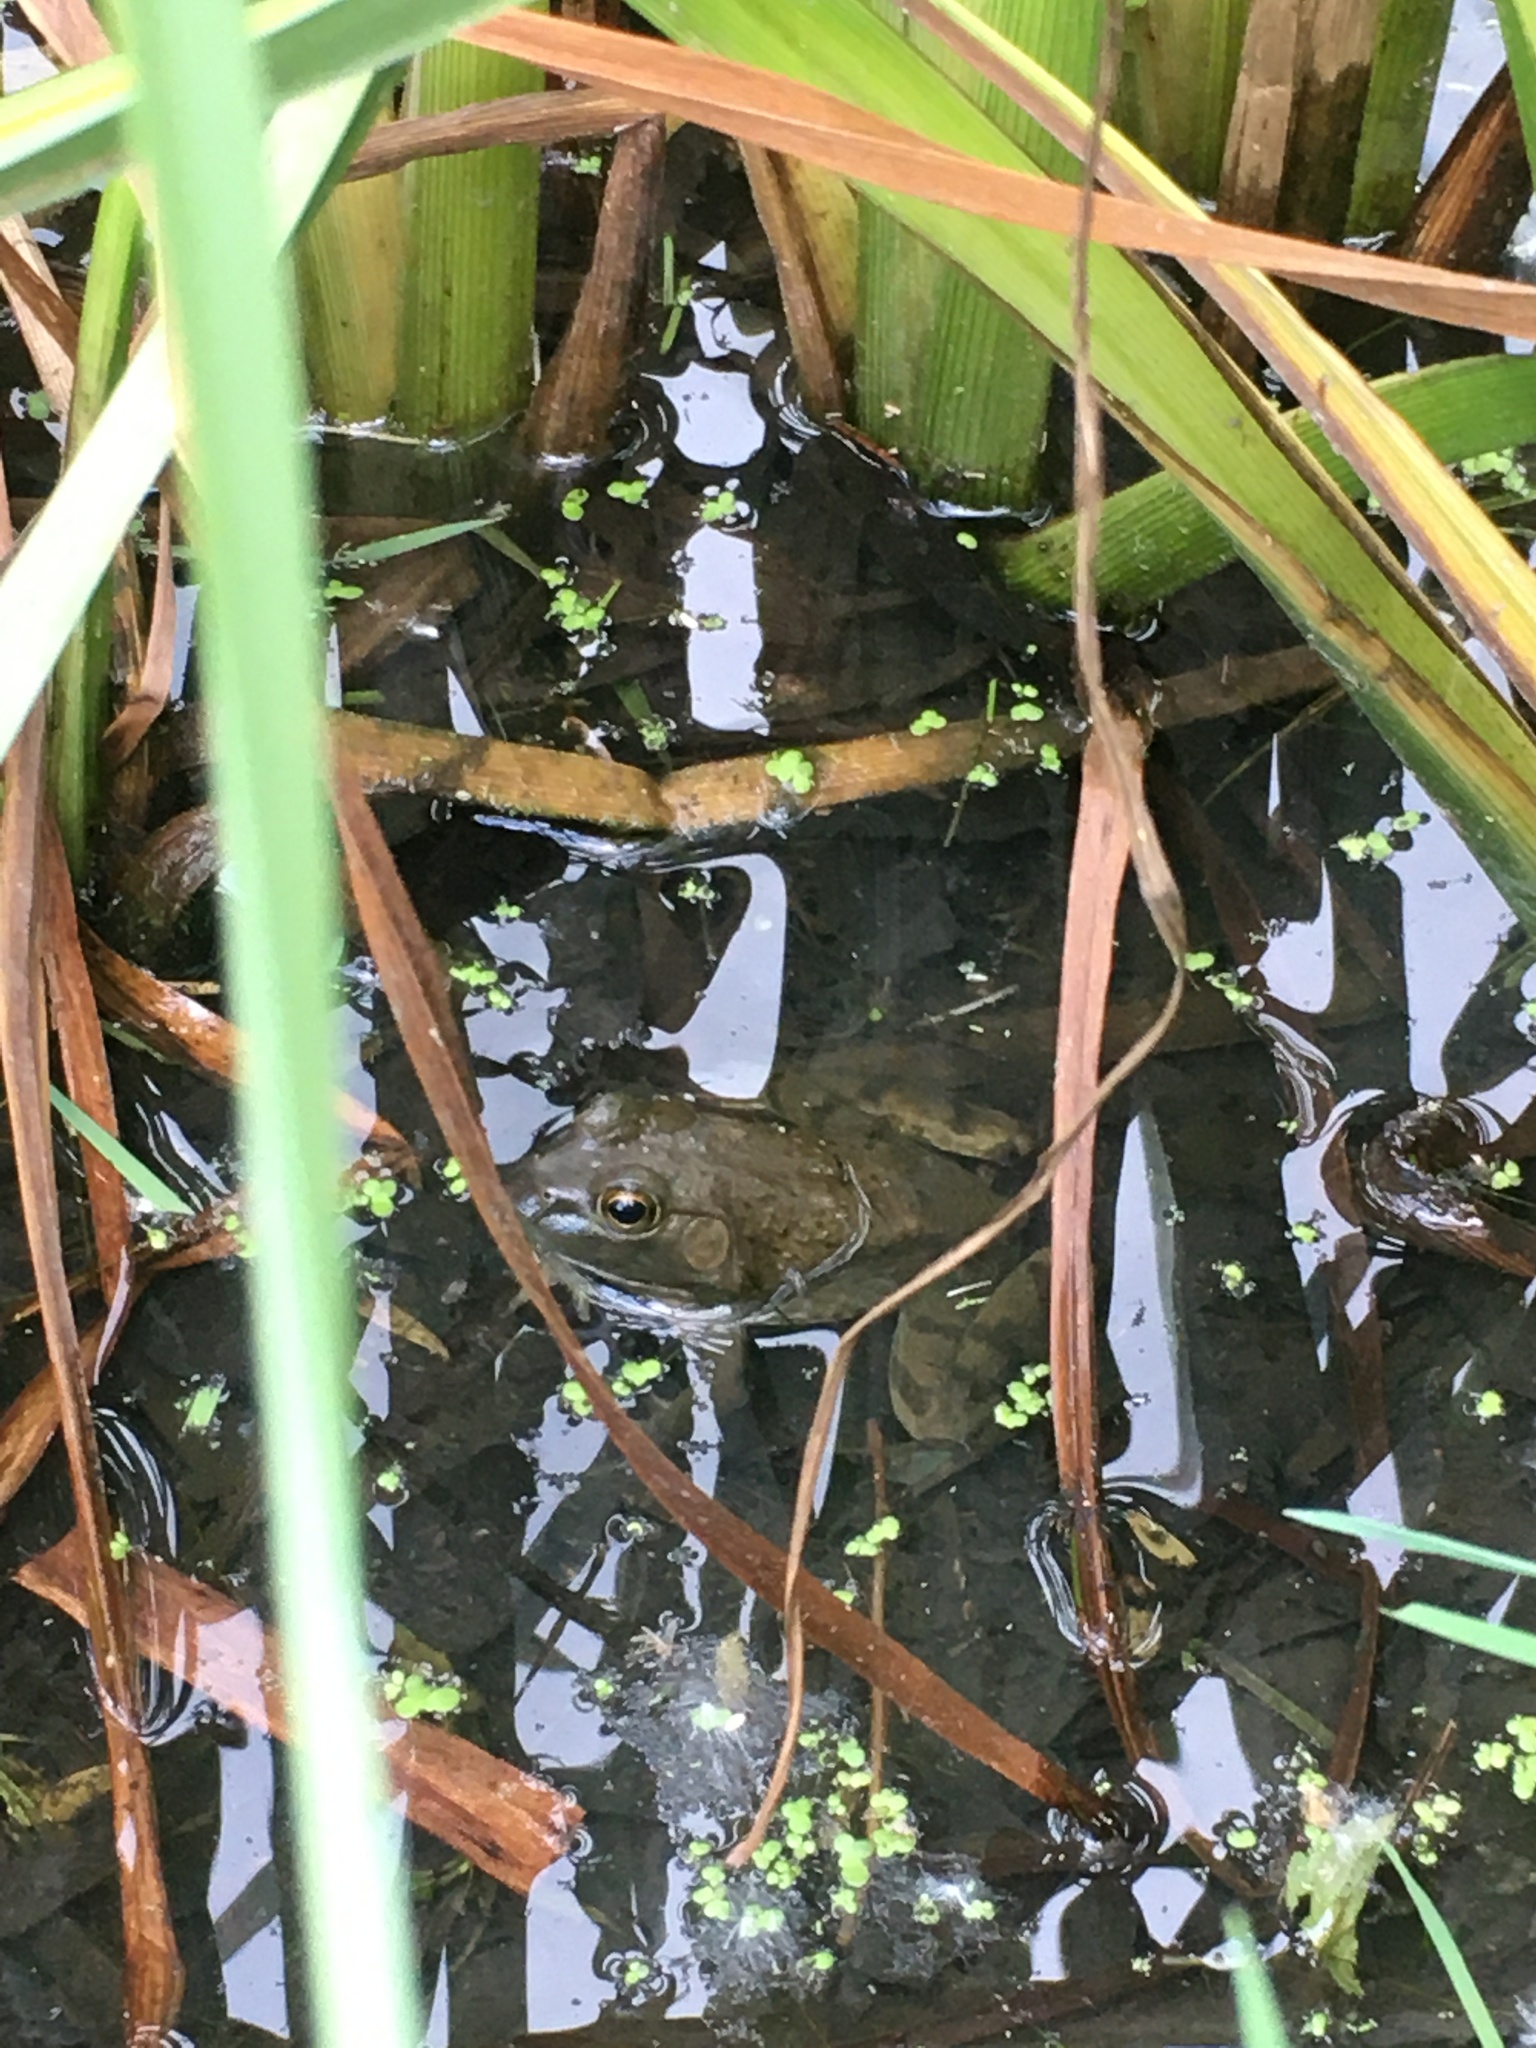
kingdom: Animalia
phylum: Chordata
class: Amphibia
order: Anura
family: Ranidae
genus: Lithobates
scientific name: Lithobates catesbeianus
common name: American bullfrog
